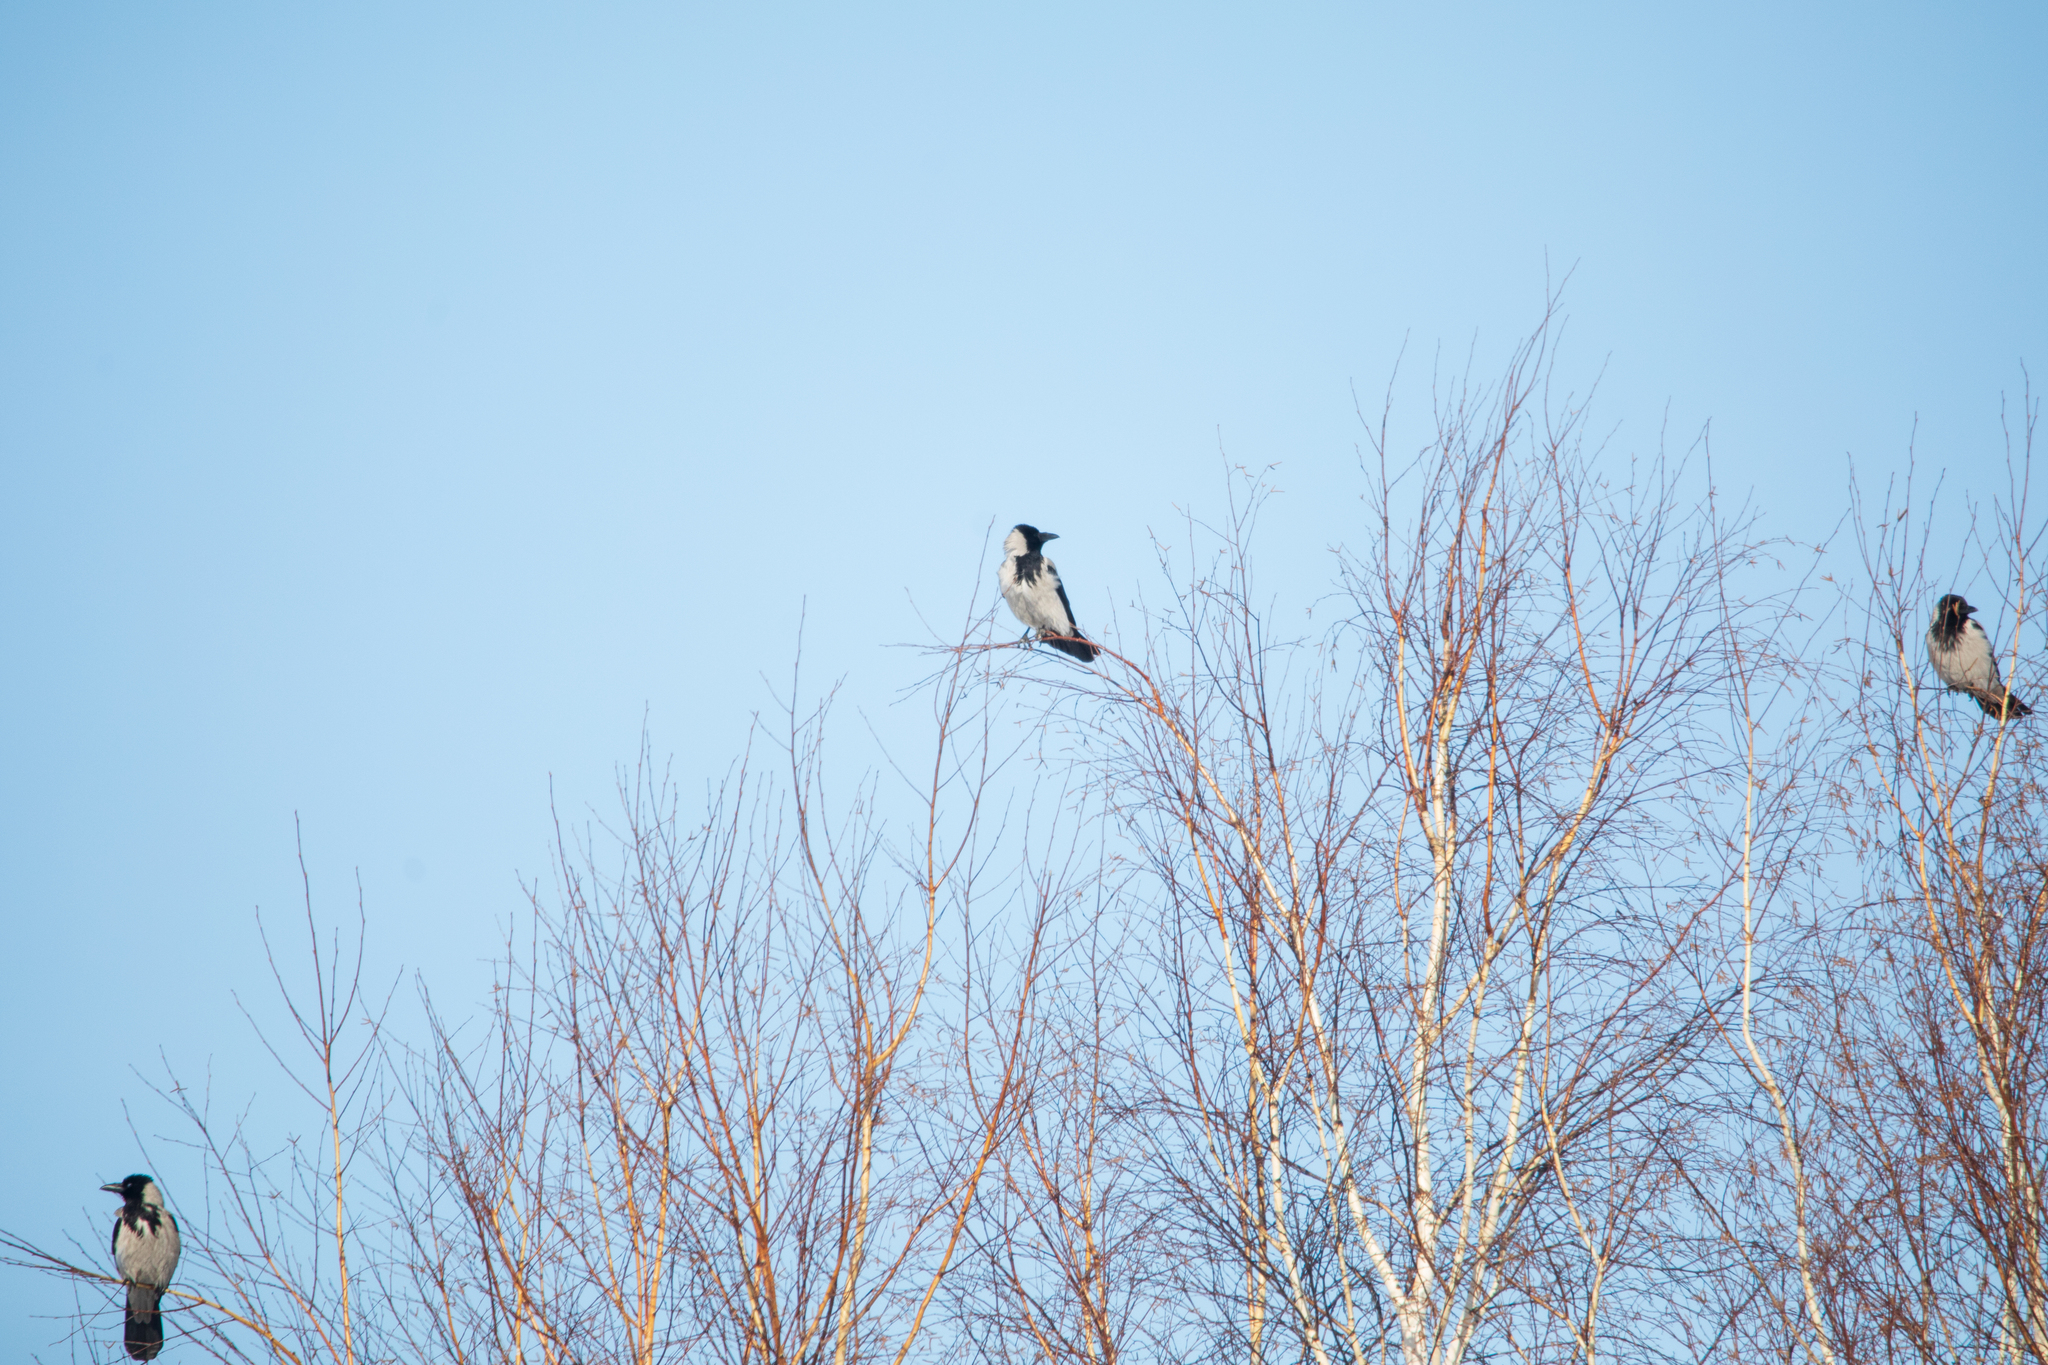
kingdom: Animalia
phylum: Chordata
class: Aves
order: Passeriformes
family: Corvidae
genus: Corvus
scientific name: Corvus cornix
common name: Hooded crow
